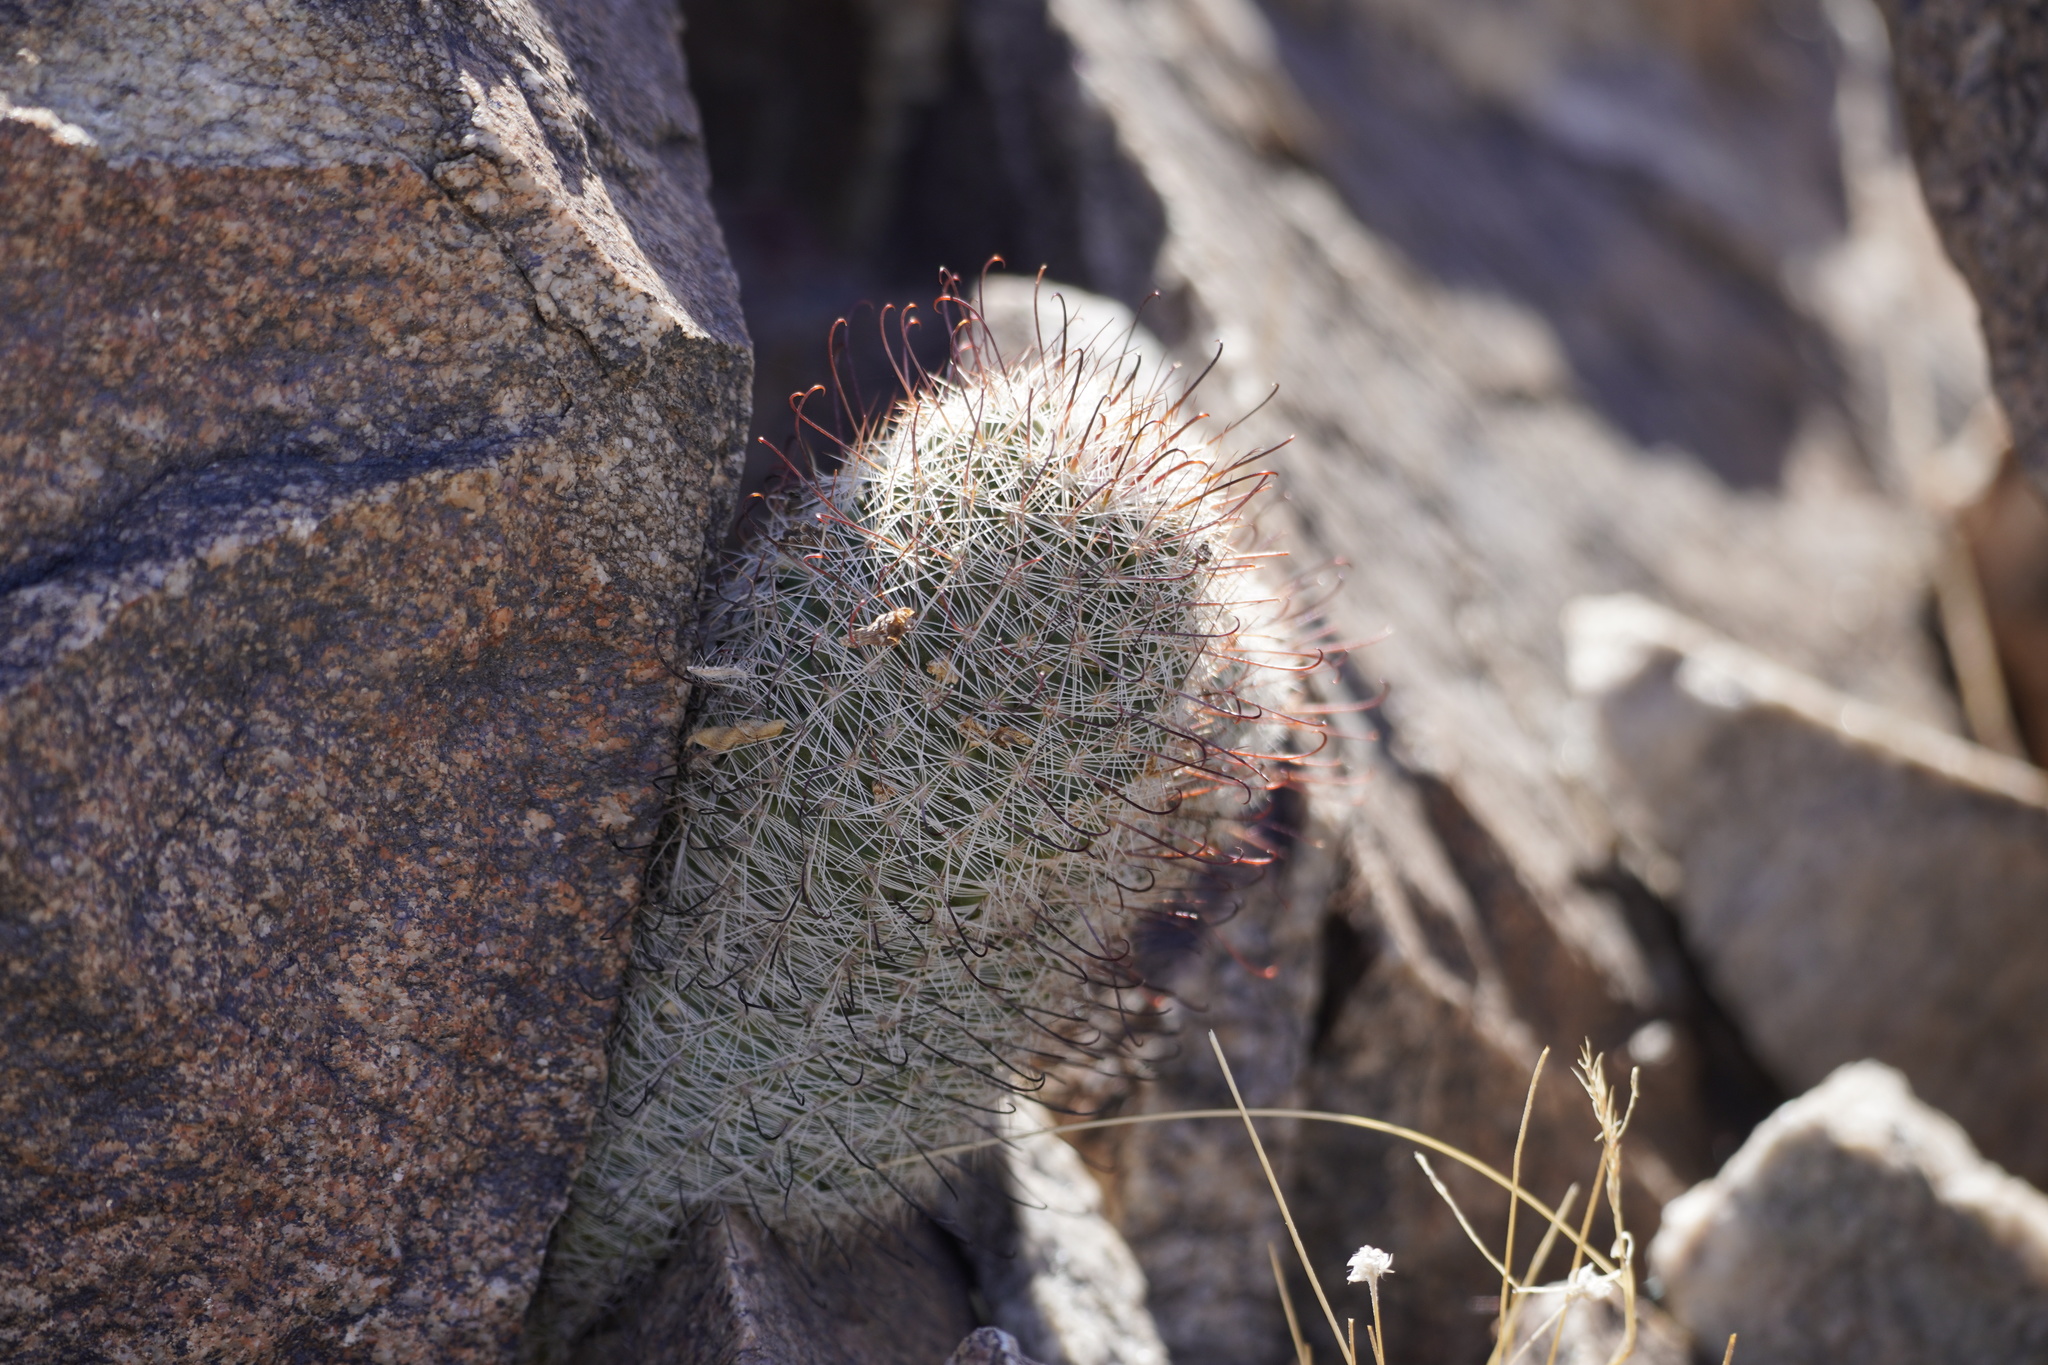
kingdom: Plantae
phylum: Tracheophyta
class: Magnoliopsida
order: Caryophyllales
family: Cactaceae
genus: Cochemiea
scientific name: Cochemiea grahamii
